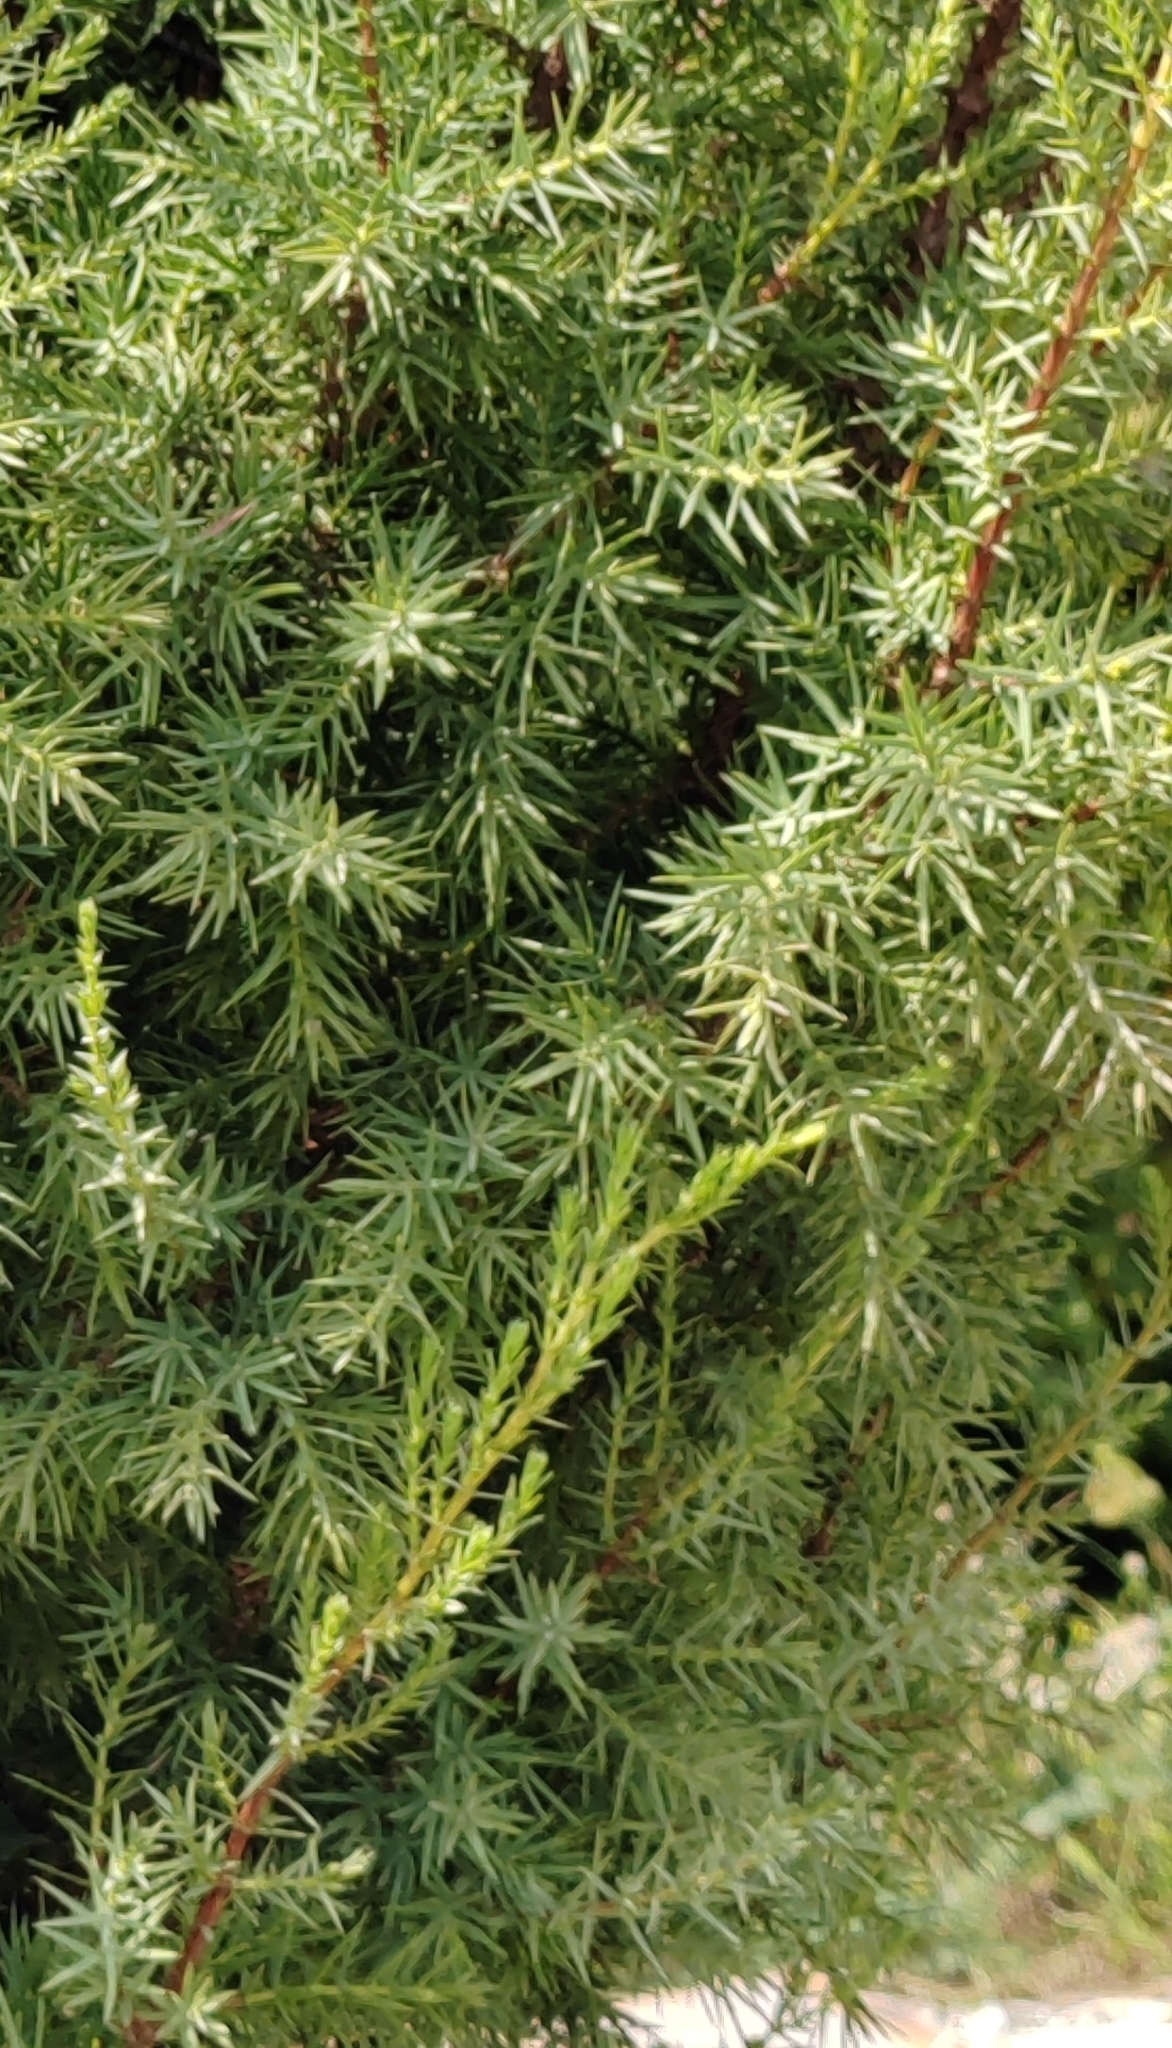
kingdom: Plantae
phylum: Tracheophyta
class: Pinopsida
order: Pinales
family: Cupressaceae
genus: Juniperus
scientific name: Juniperus oxycedrus
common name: Prickly juniper
